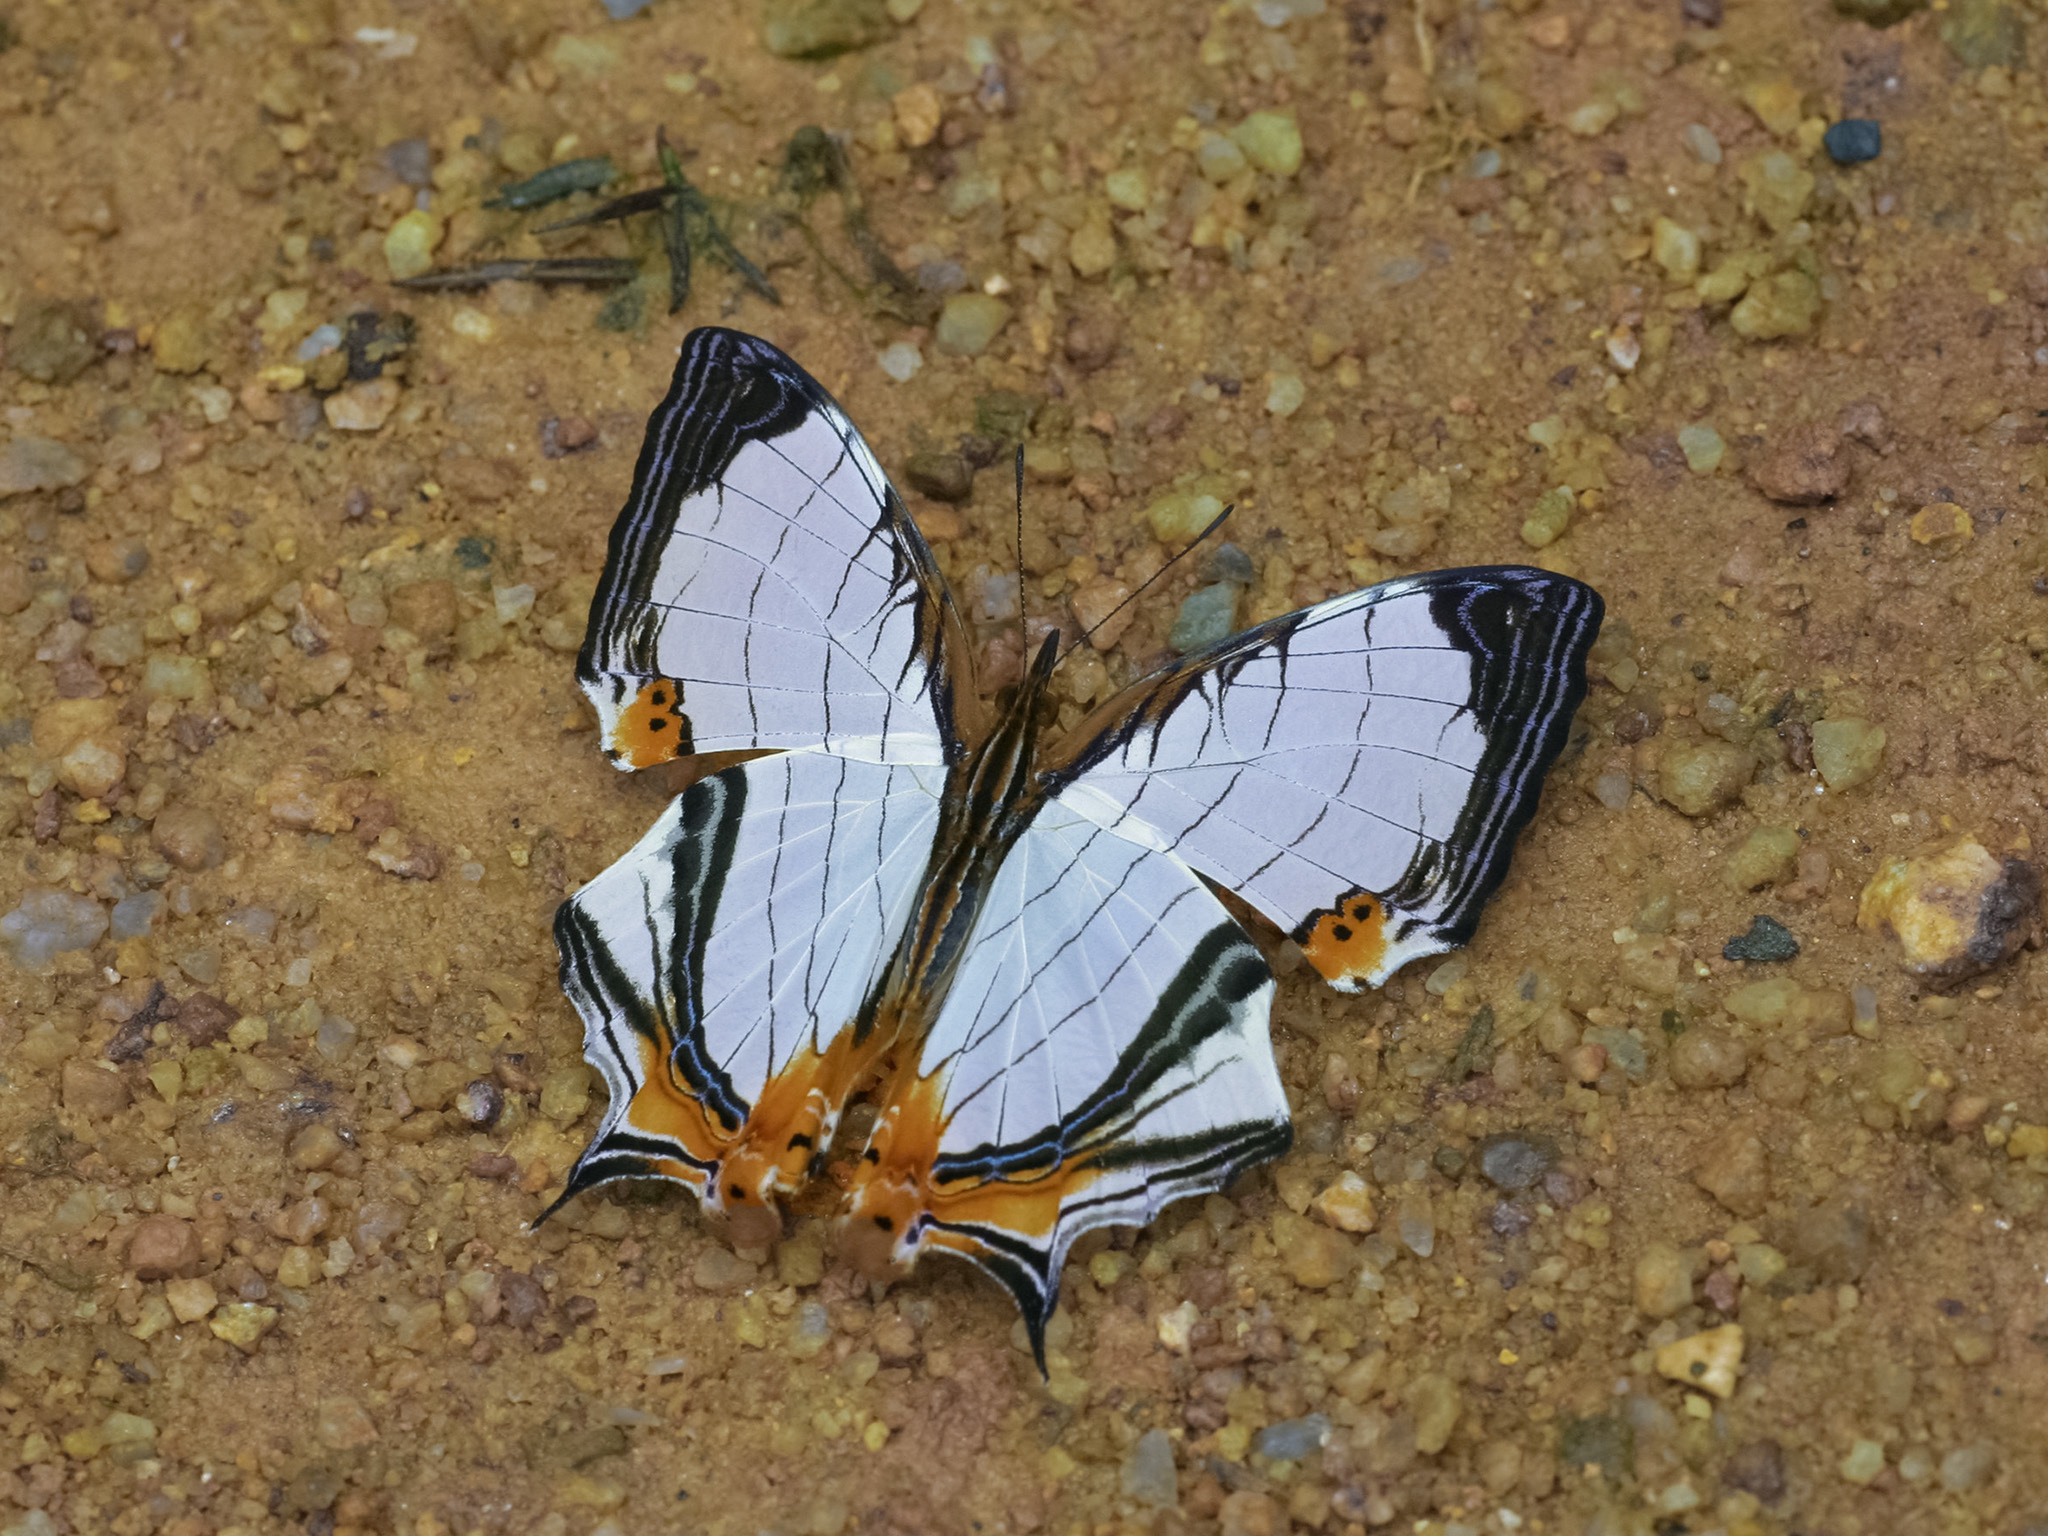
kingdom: Animalia
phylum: Arthropoda
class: Insecta
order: Lepidoptera
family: Nymphalidae
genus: Cyrestis
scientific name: Cyrestis nivea
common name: Straight line mapwing
